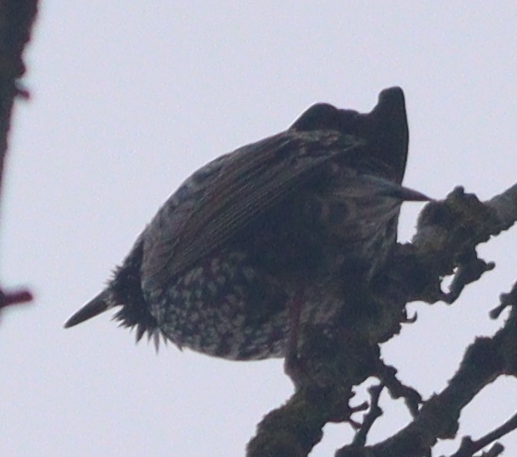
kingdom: Animalia
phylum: Chordata
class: Aves
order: Passeriformes
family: Sturnidae
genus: Sturnus
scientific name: Sturnus vulgaris
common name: Common starling
